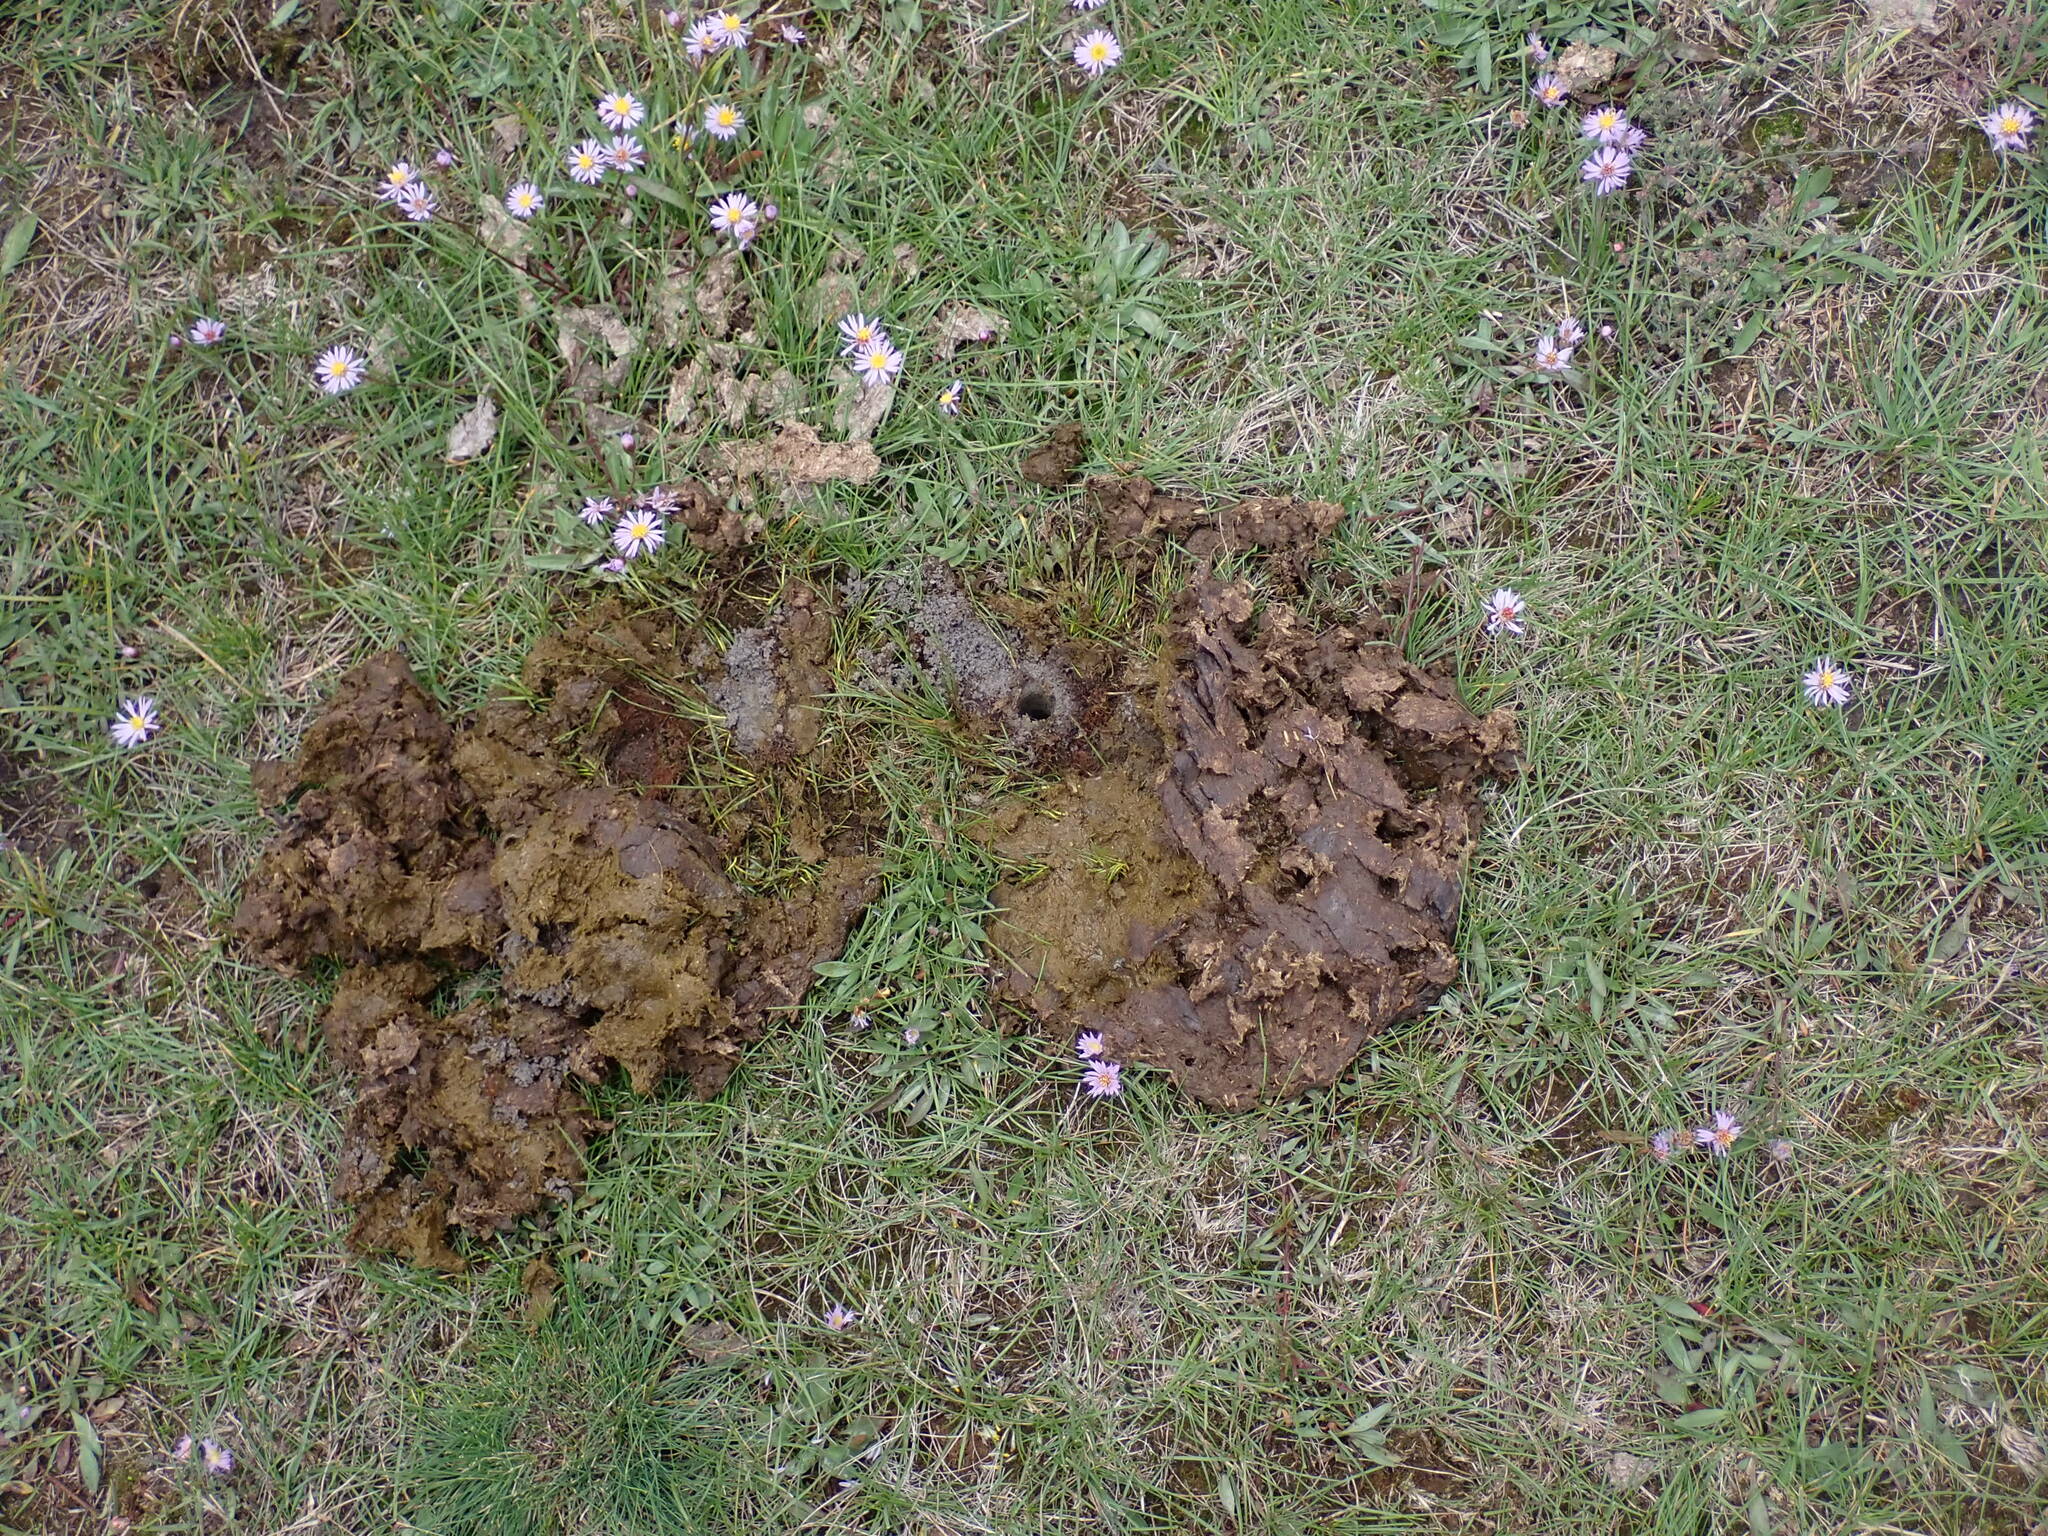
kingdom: Animalia
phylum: Arthropoda
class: Insecta
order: Coleoptera
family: Geotrupidae
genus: Geotrupes
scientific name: Geotrupes spiniger
